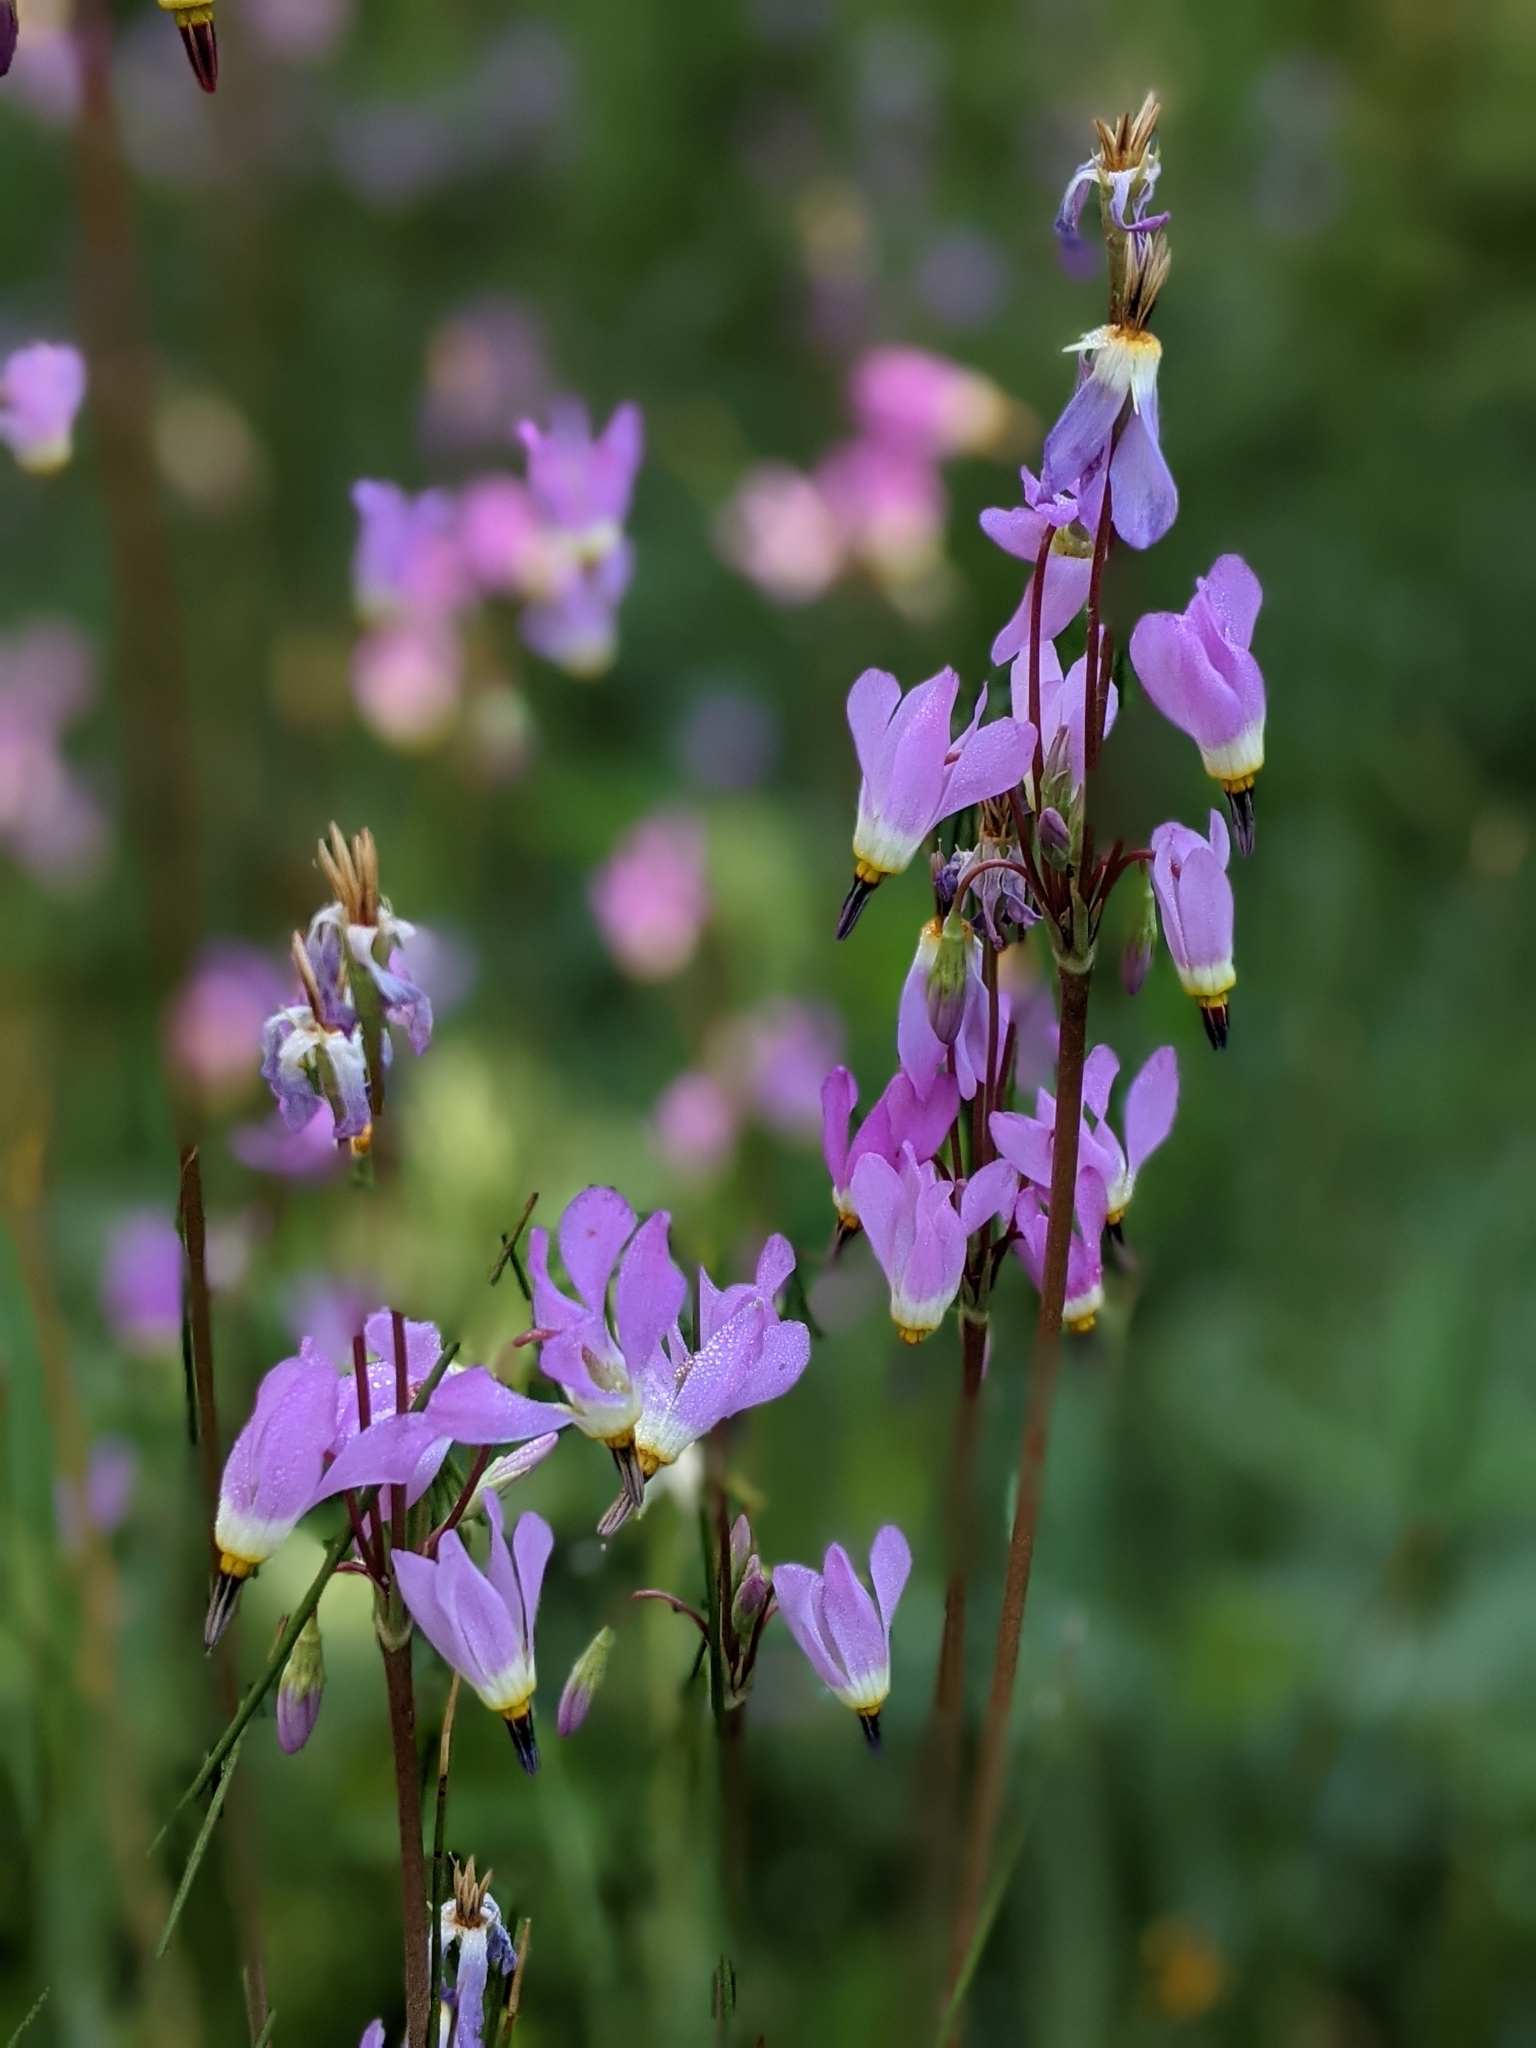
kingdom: Plantae
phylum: Tracheophyta
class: Magnoliopsida
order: Ericales
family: Primulaceae
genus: Dodecatheon
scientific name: Dodecatheon pulchellum
